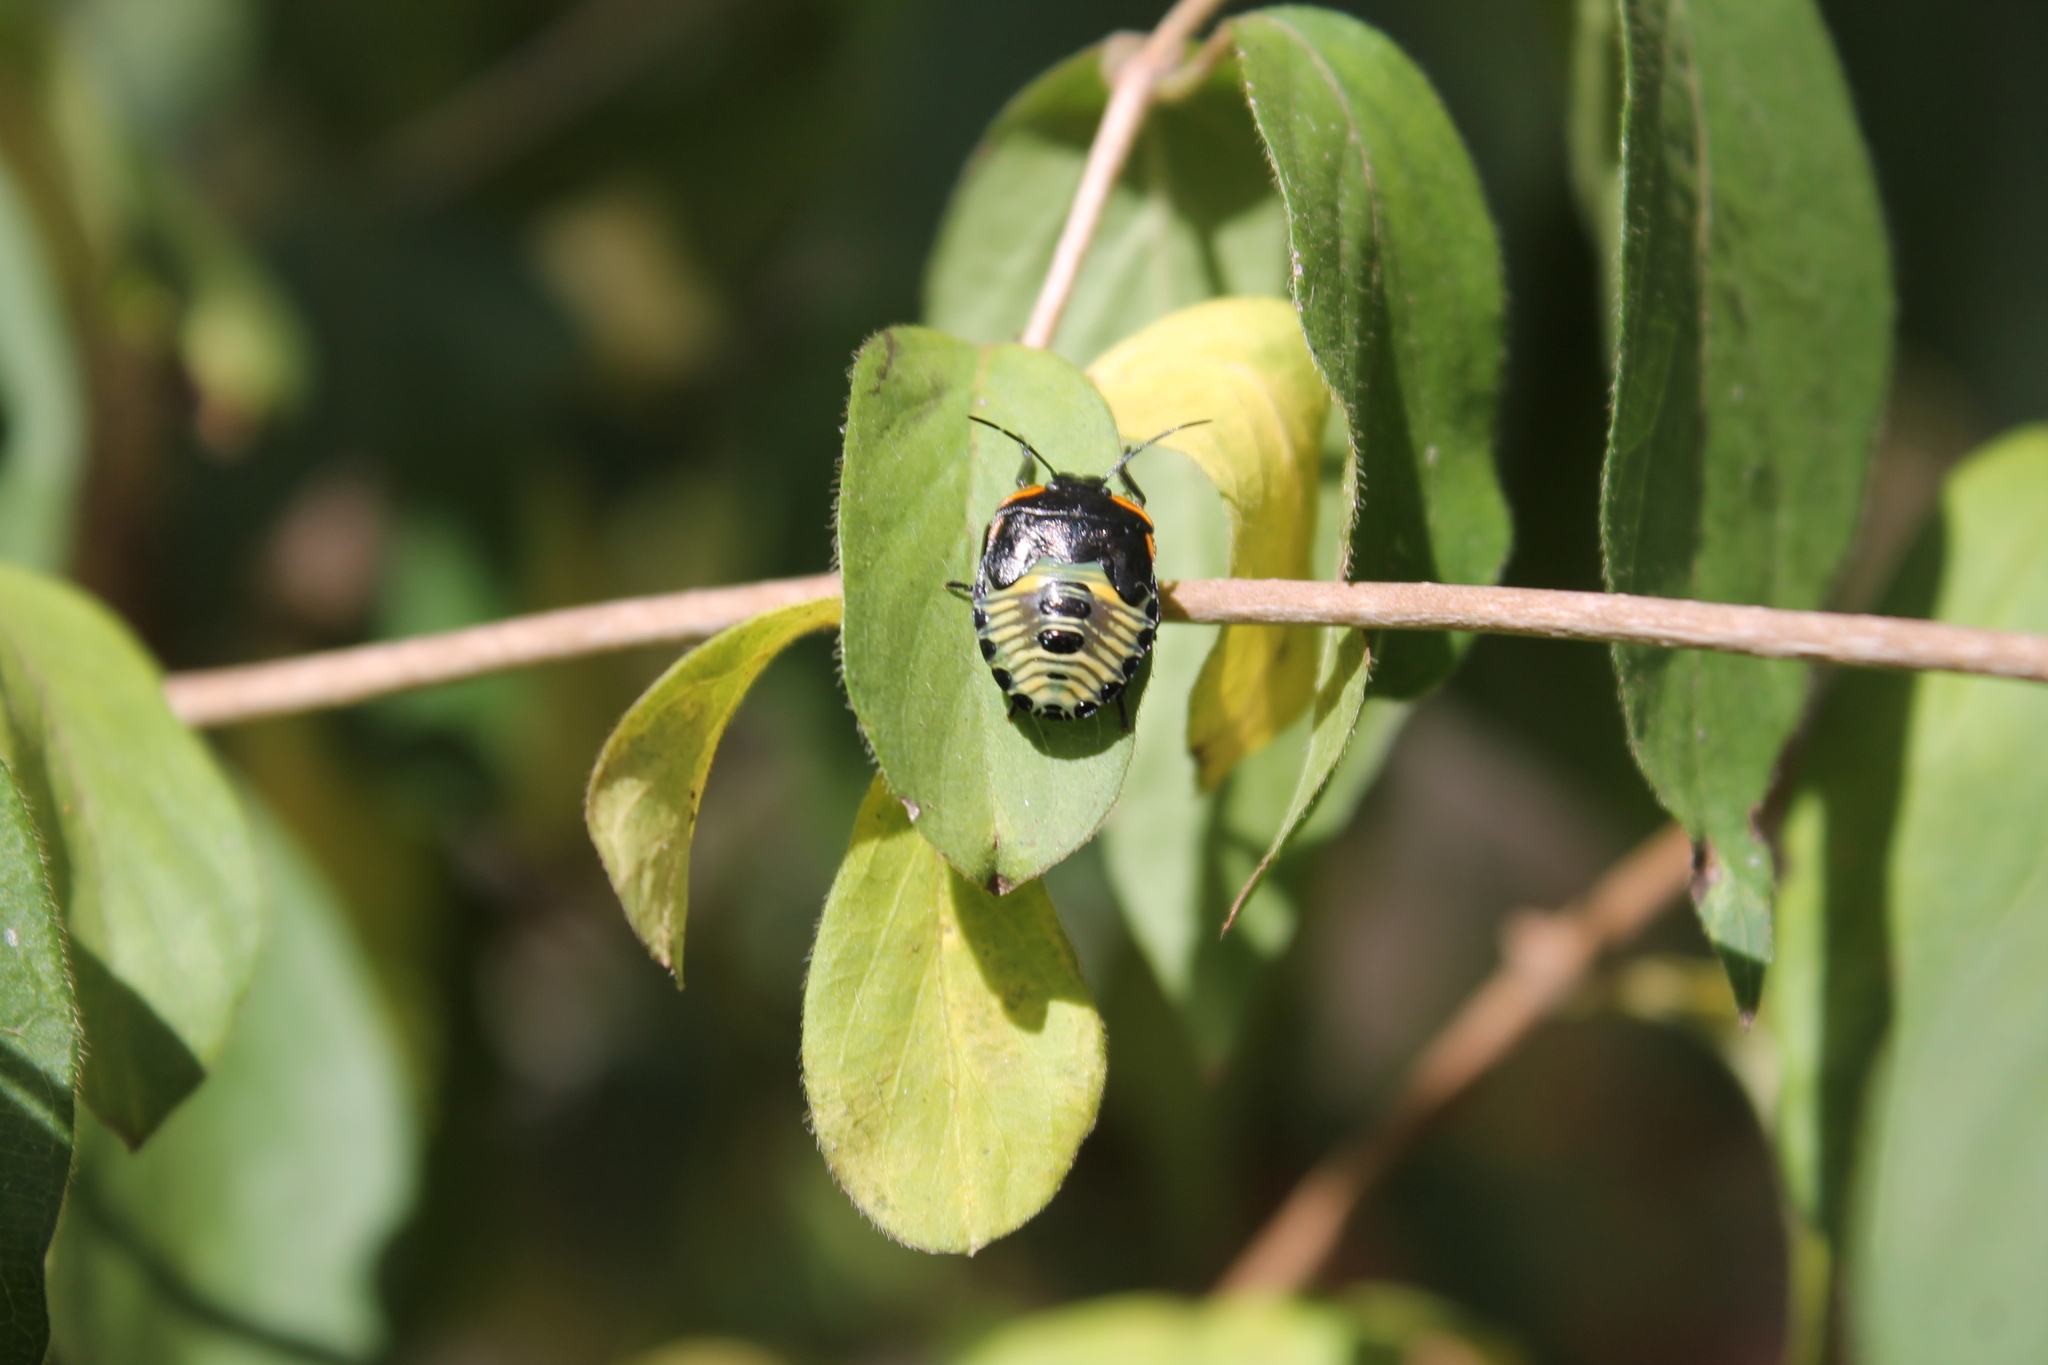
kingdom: Animalia
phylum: Arthropoda
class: Insecta
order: Hemiptera
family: Pentatomidae
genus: Chinavia
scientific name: Chinavia hilaris
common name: Green stink bug
